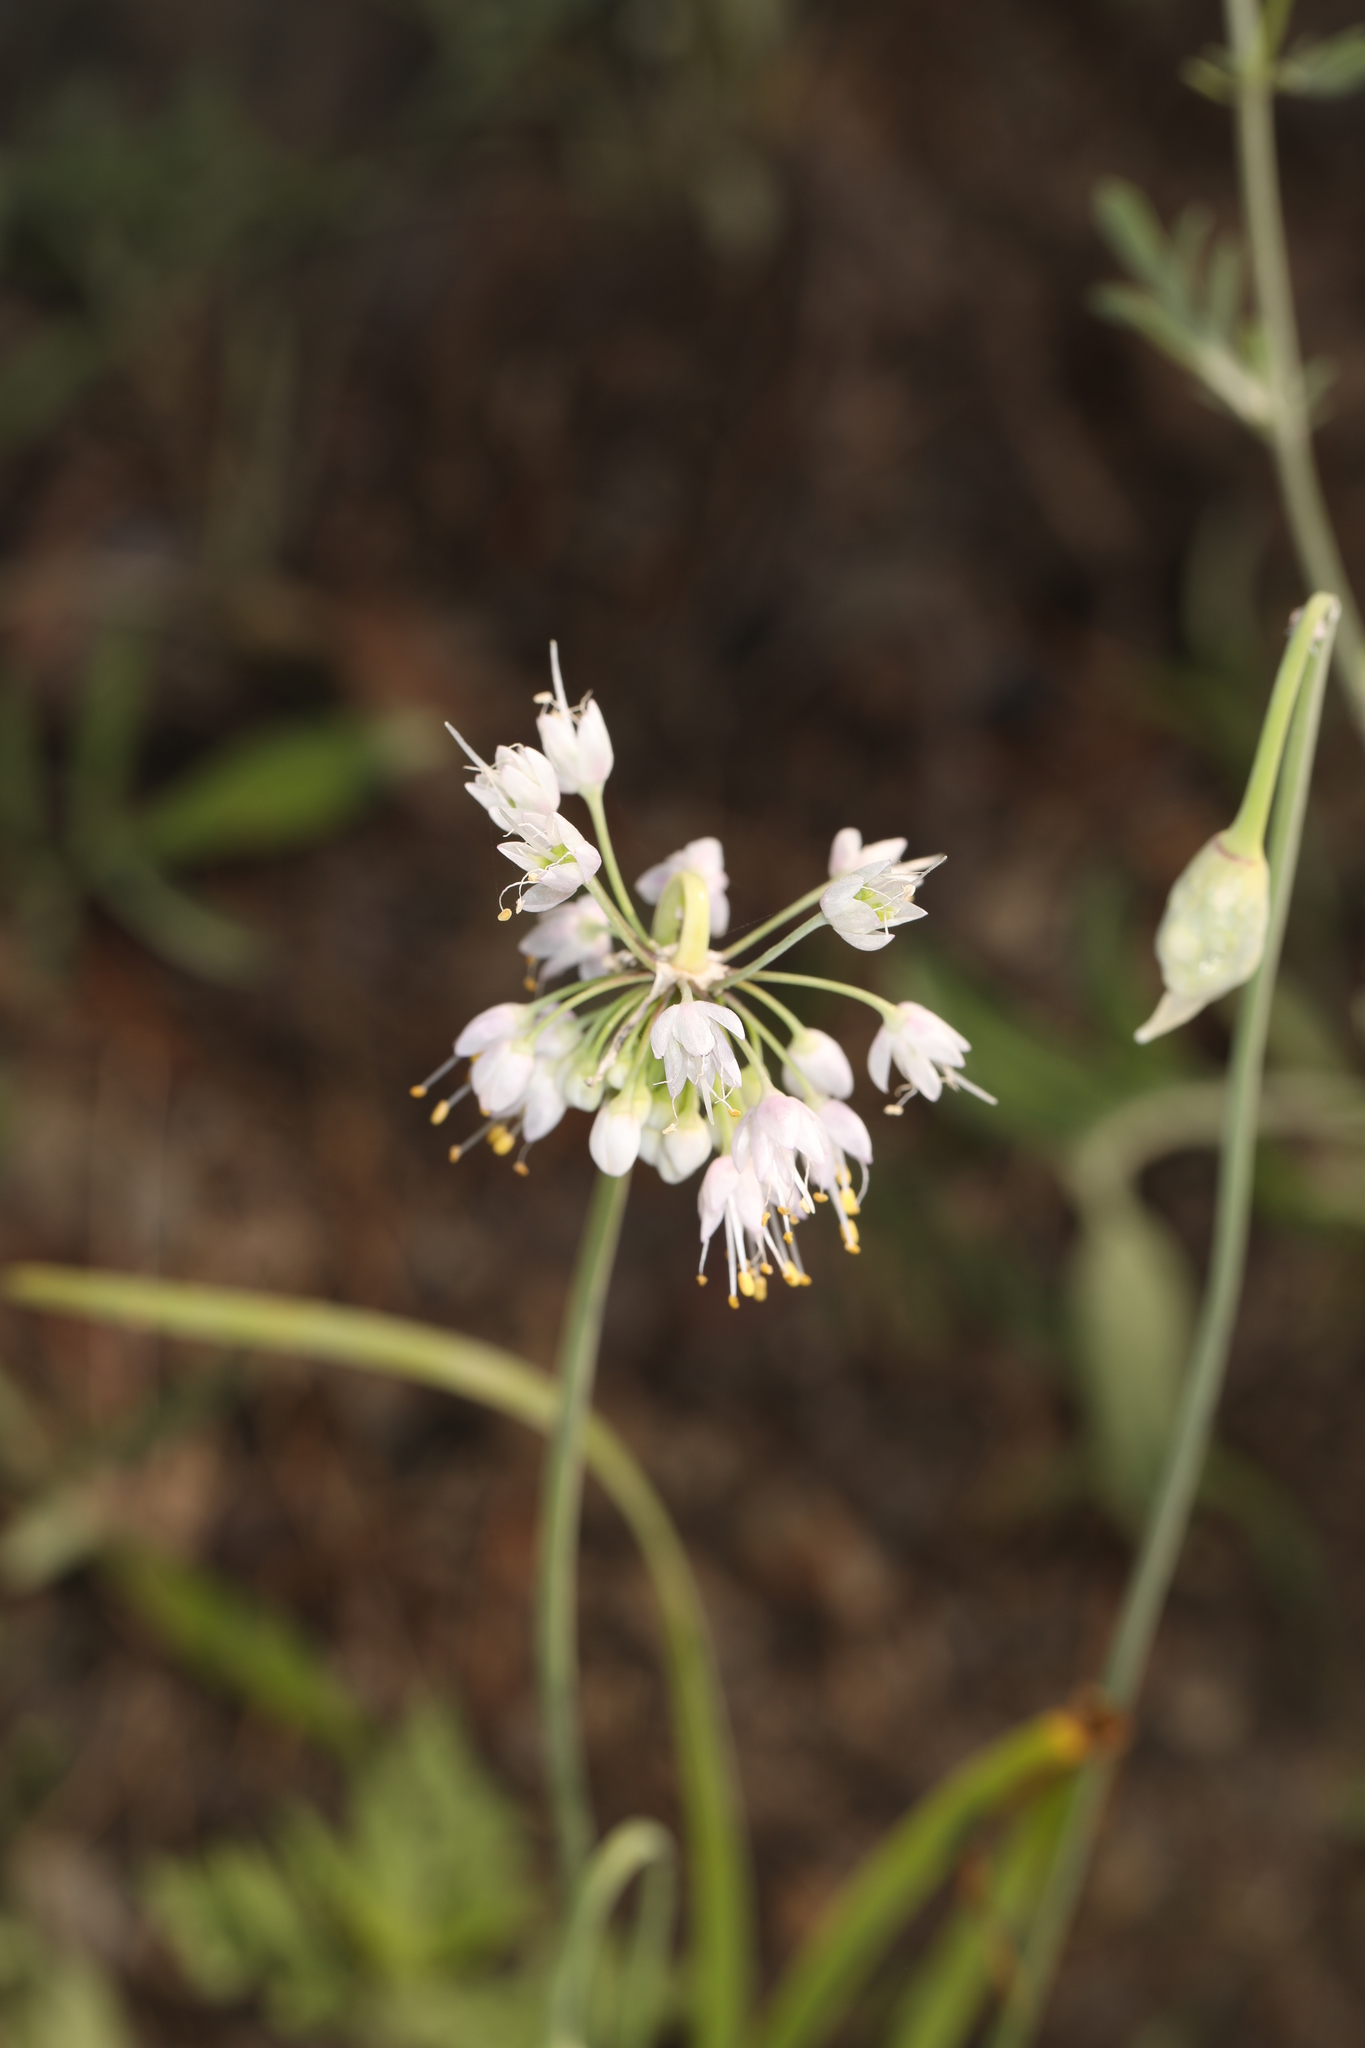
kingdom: Plantae
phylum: Tracheophyta
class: Liliopsida
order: Asparagales
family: Amaryllidaceae
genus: Allium
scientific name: Allium cernuum
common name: Nodding onion
